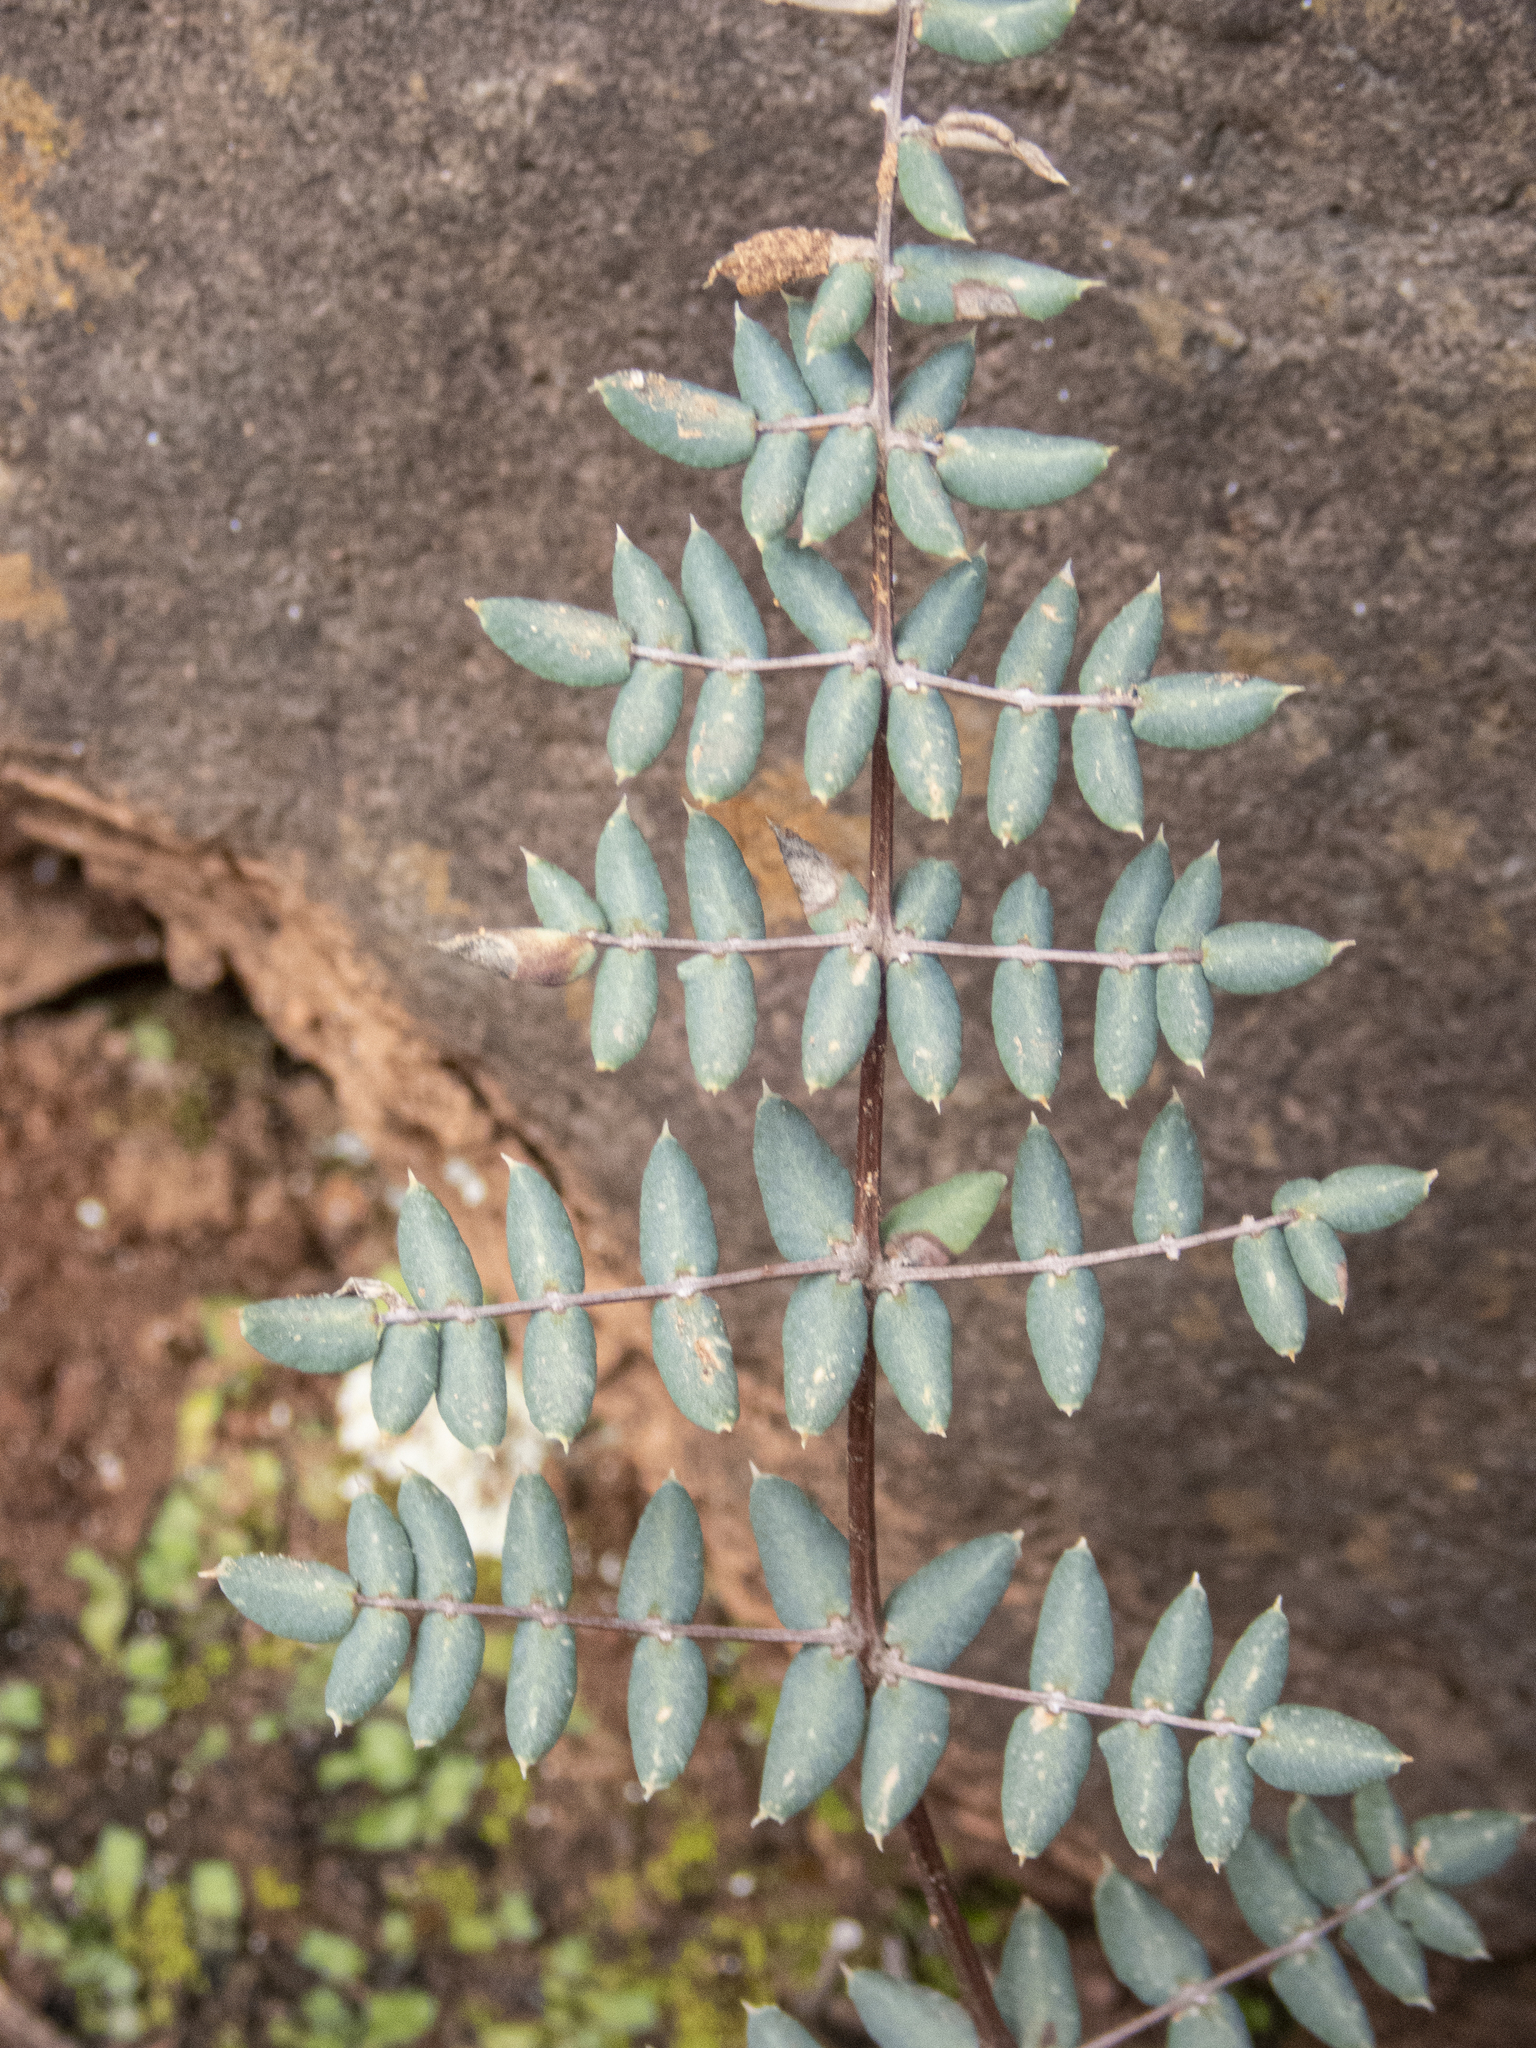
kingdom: Plantae
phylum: Tracheophyta
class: Polypodiopsida
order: Polypodiales
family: Pteridaceae
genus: Pellaea
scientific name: Pellaea truncata
